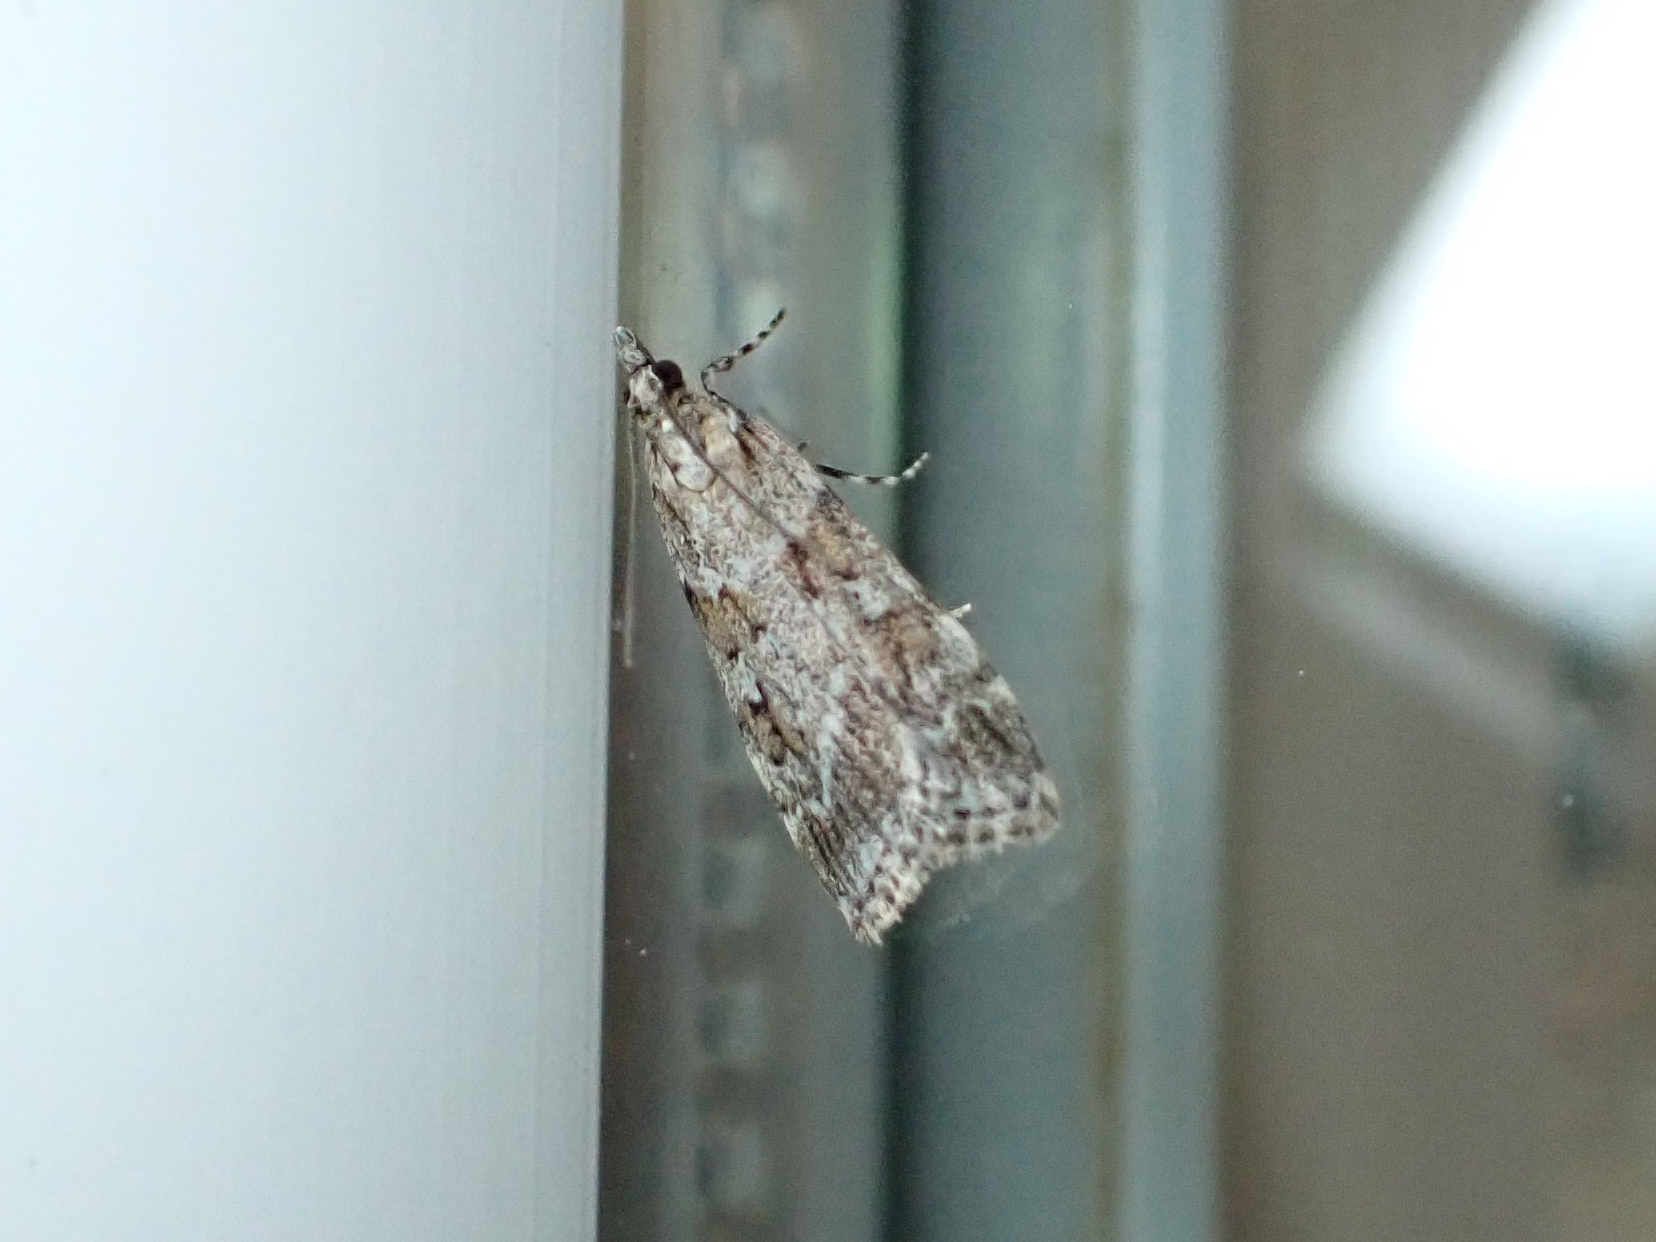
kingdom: Animalia
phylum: Arthropoda
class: Insecta
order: Lepidoptera
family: Crambidae
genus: Scoparia
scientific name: Scoparia biplagialis
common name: Double-striped scoparia moth
